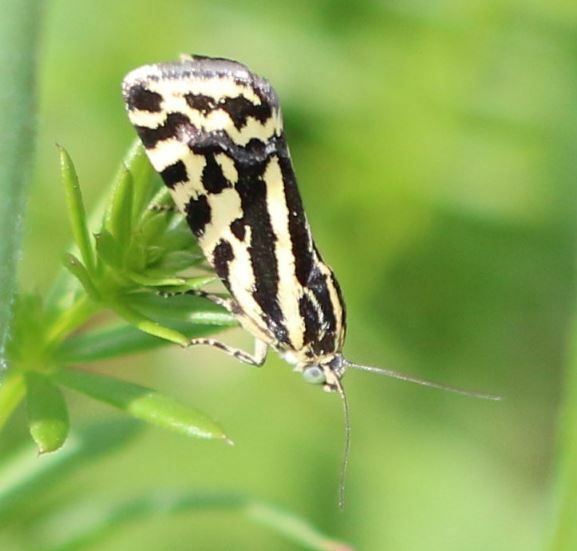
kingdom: Animalia
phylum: Arthropoda
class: Insecta
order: Lepidoptera
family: Noctuidae
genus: Acontia
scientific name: Acontia trabealis
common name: Spotted sulphur
